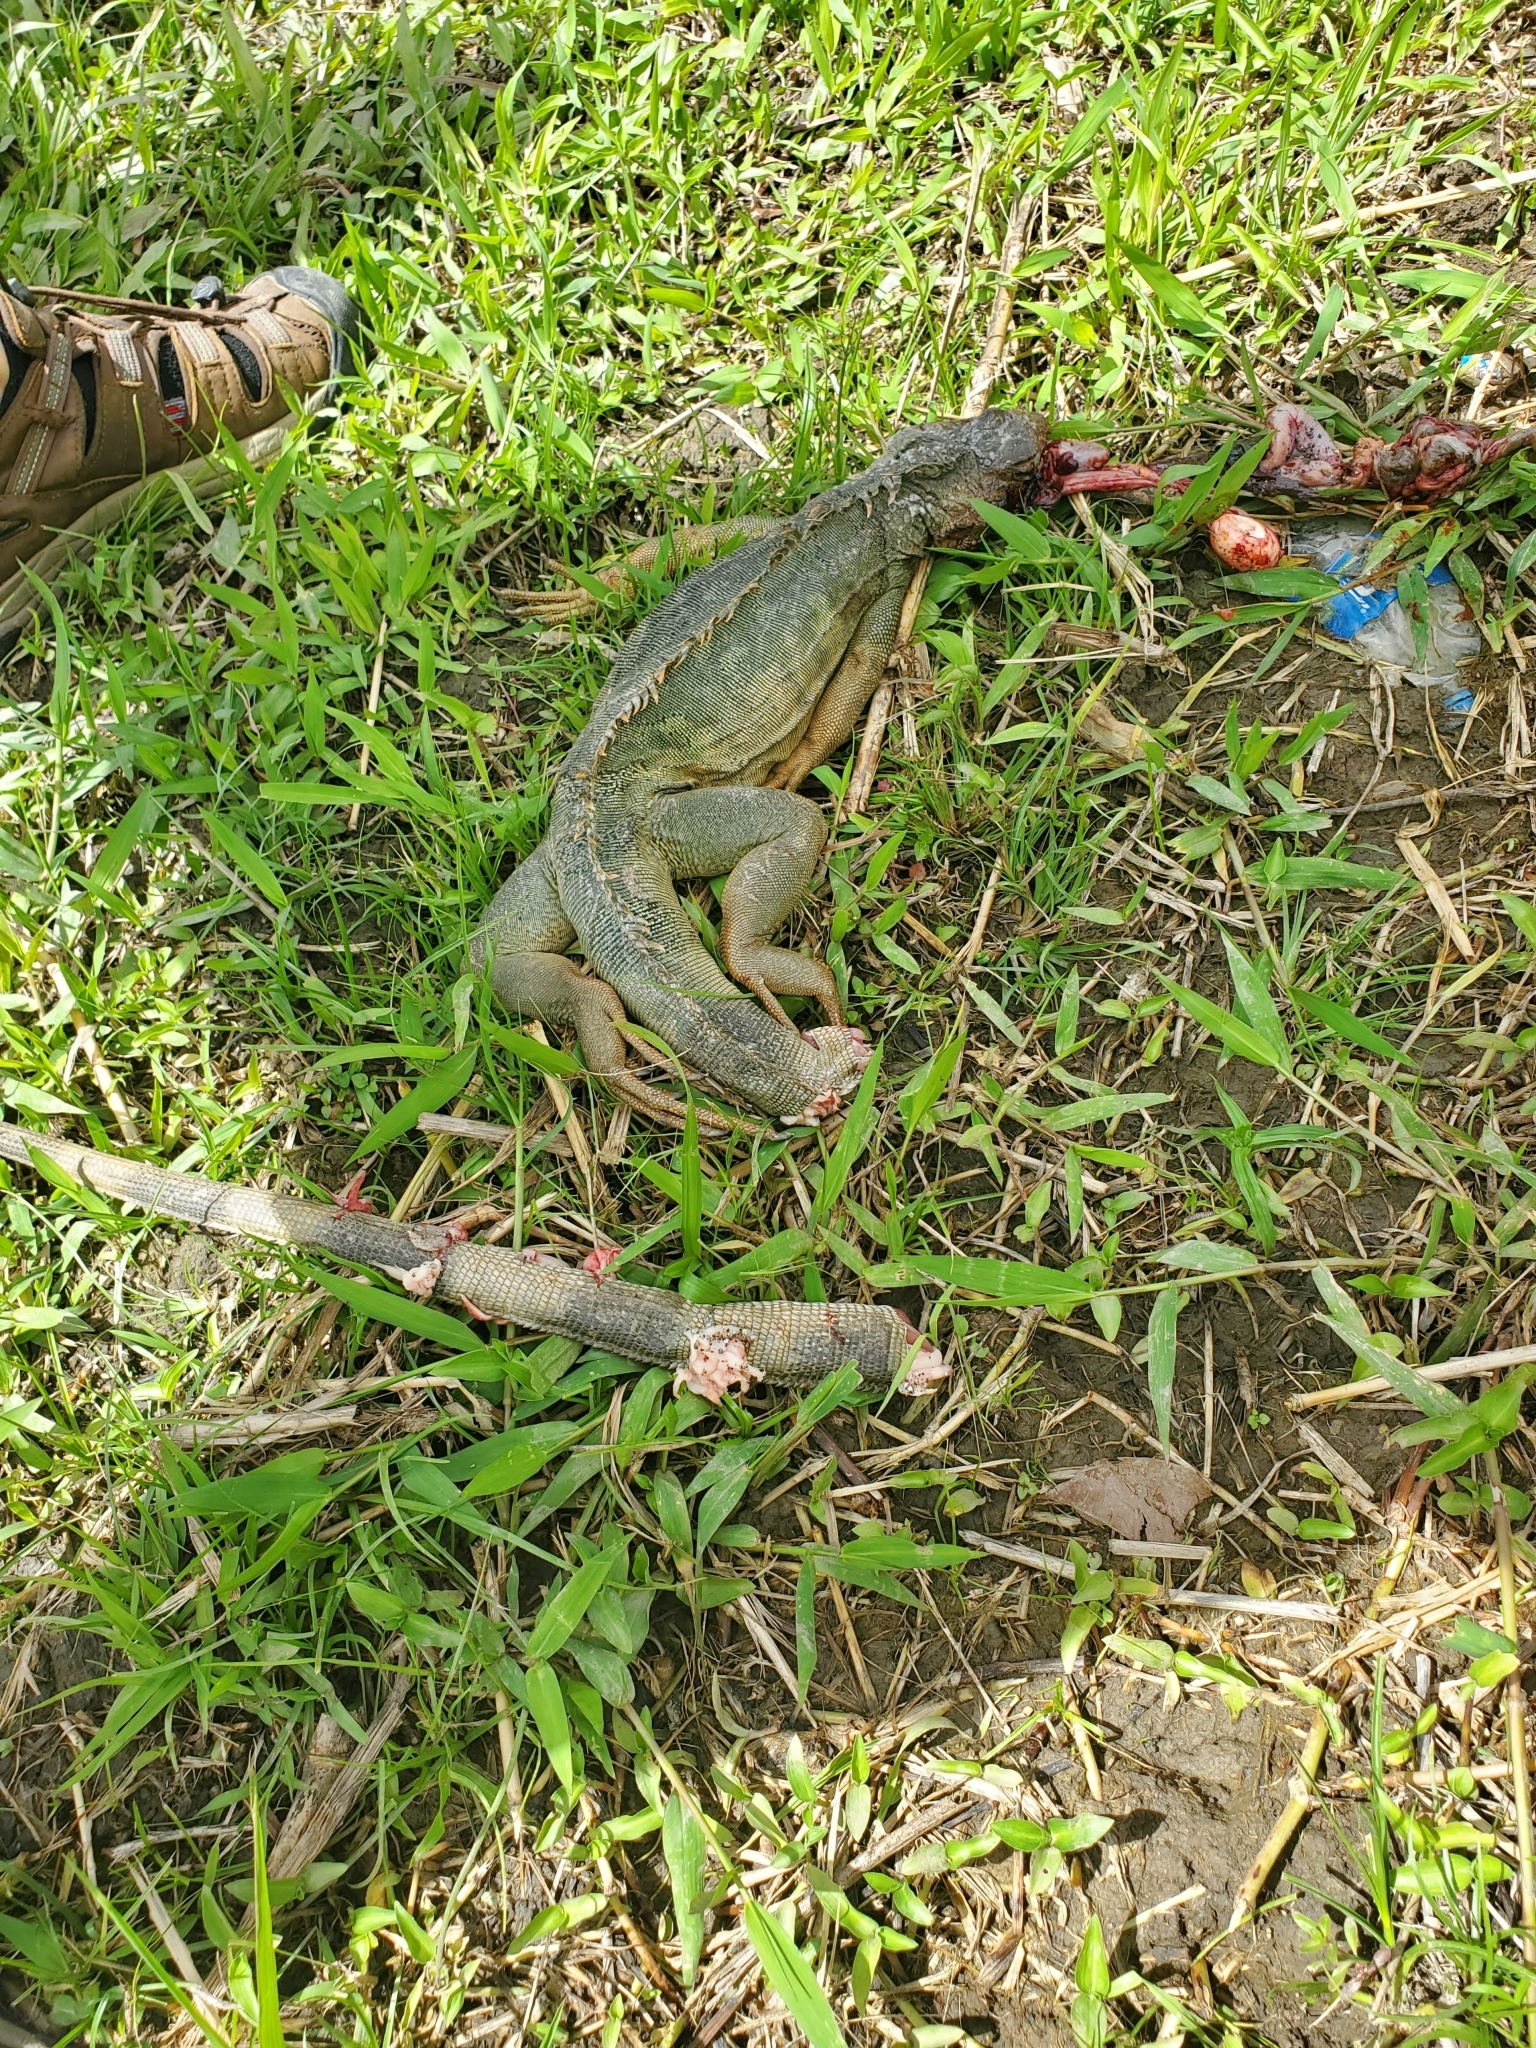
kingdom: Animalia
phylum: Chordata
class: Squamata
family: Iguanidae
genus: Iguana
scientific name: Iguana iguana
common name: Green iguana
